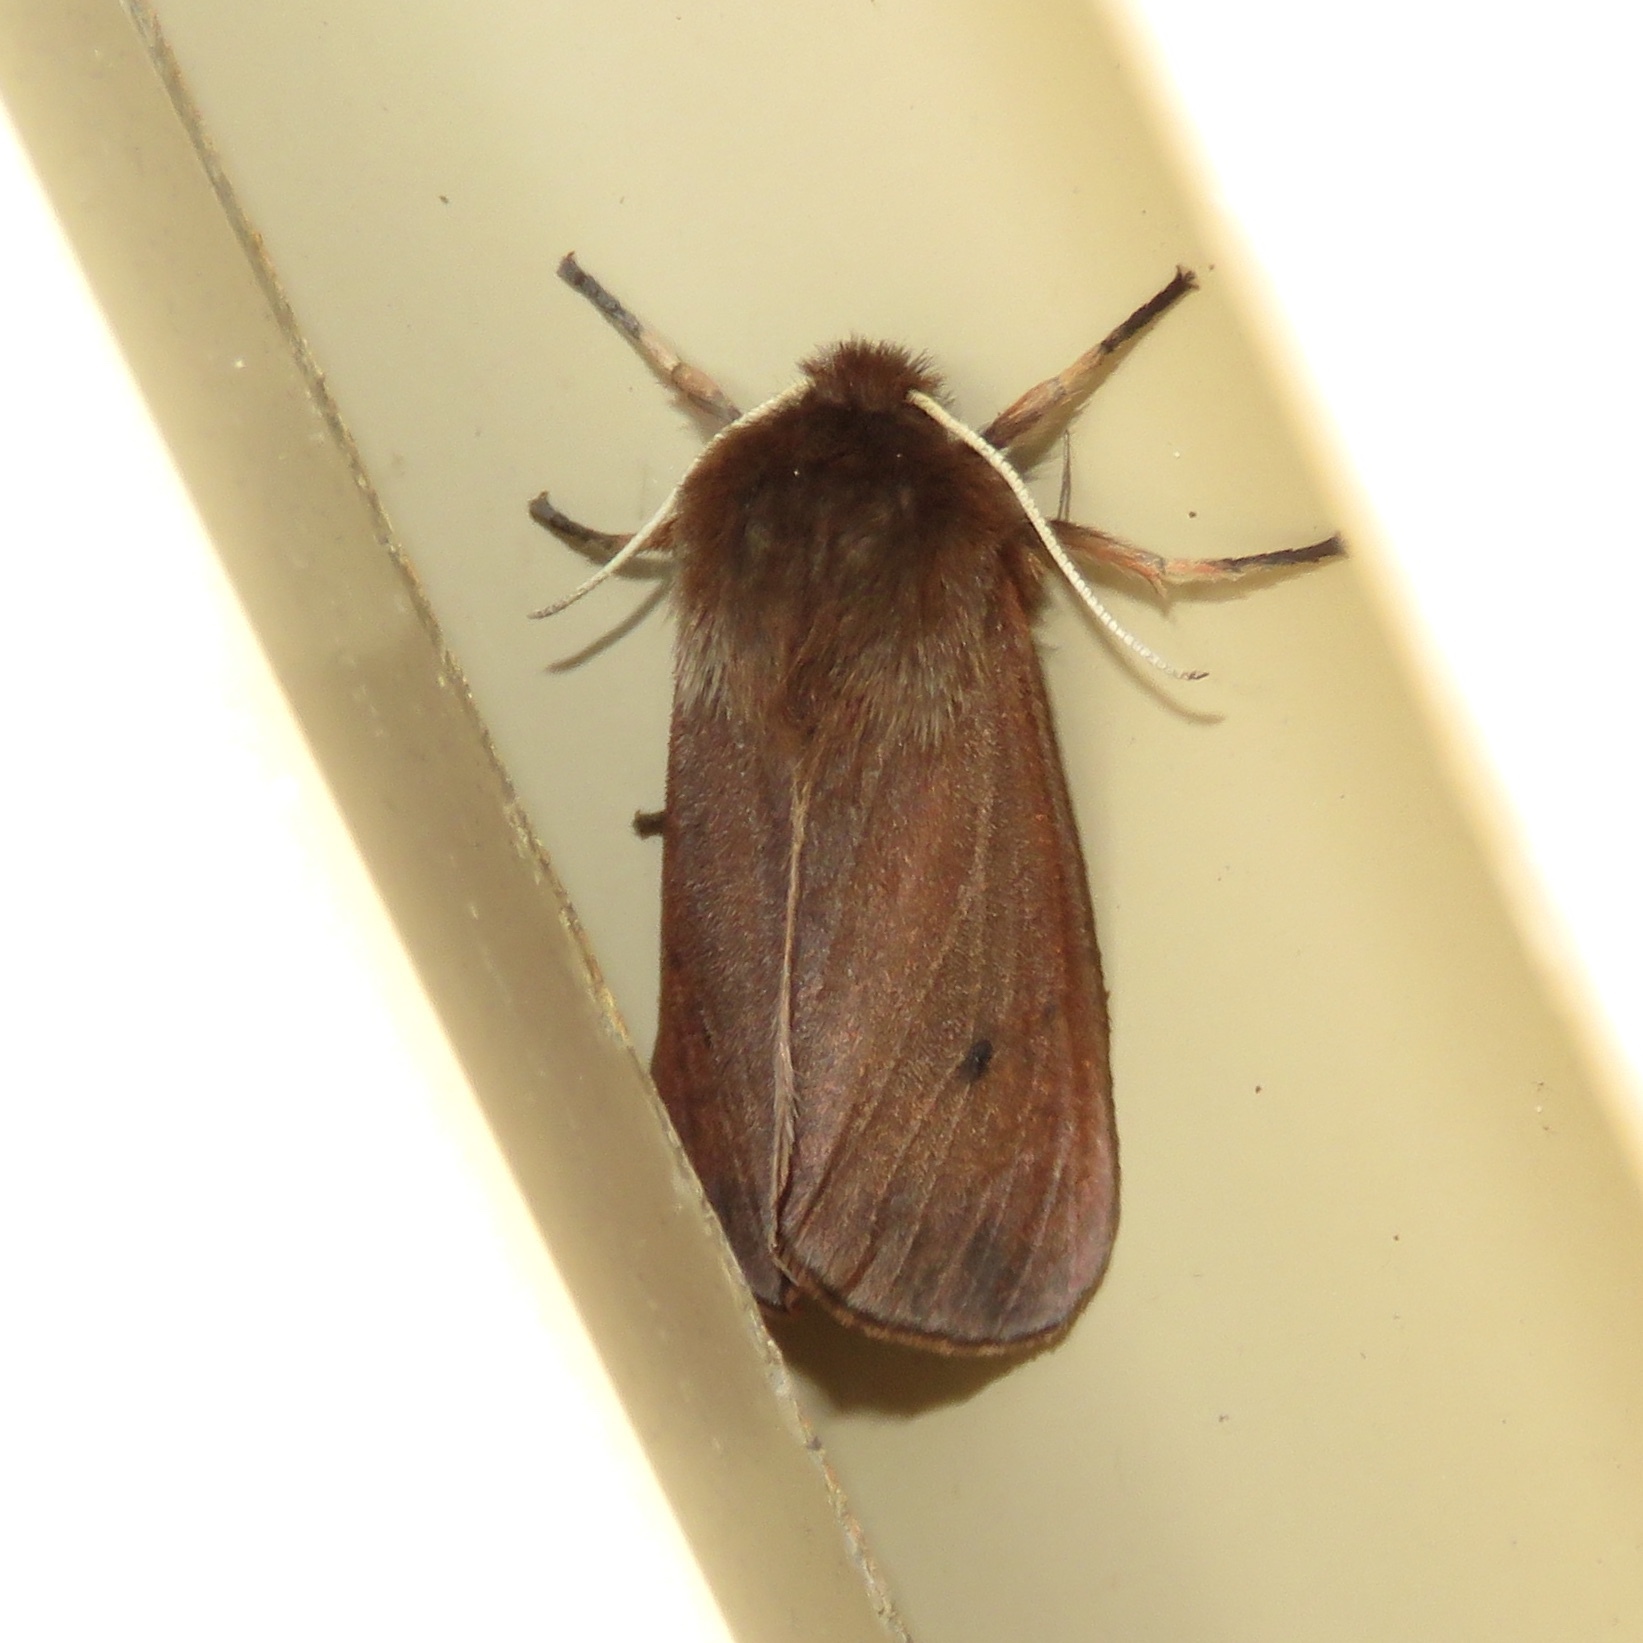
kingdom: Animalia
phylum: Arthropoda
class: Insecta
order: Lepidoptera
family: Erebidae
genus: Phragmatobia
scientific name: Phragmatobia fuliginosa
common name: Ruby tiger
